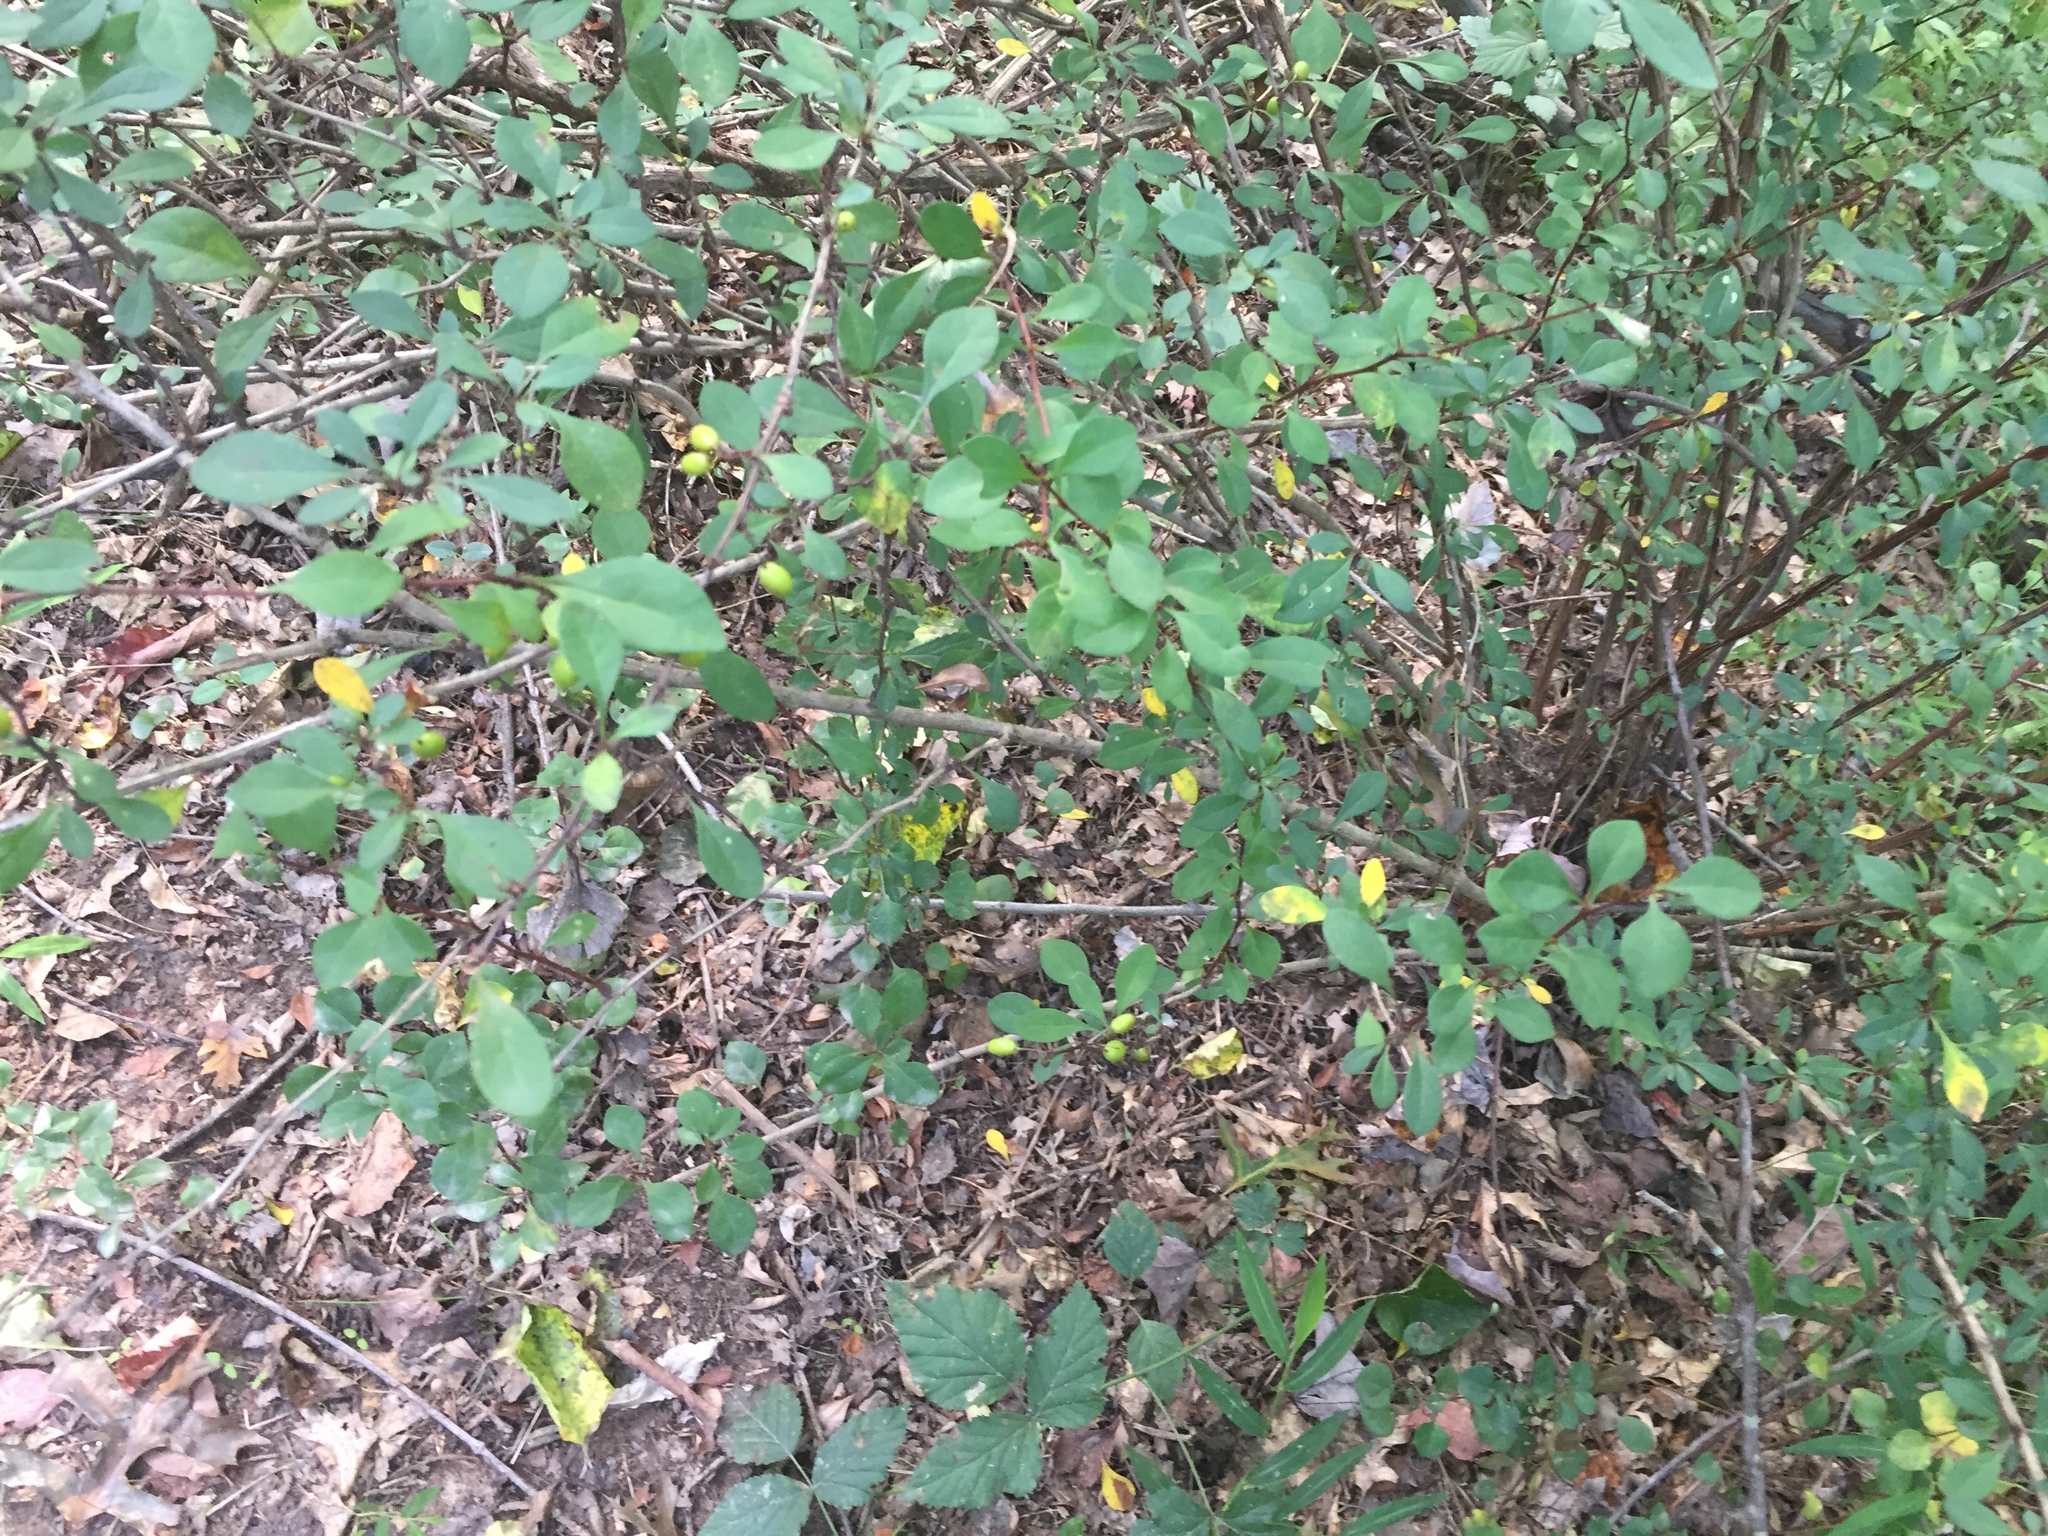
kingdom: Plantae
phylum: Tracheophyta
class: Magnoliopsida
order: Ranunculales
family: Berberidaceae
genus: Berberis
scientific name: Berberis thunbergii
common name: Japanese barberry
